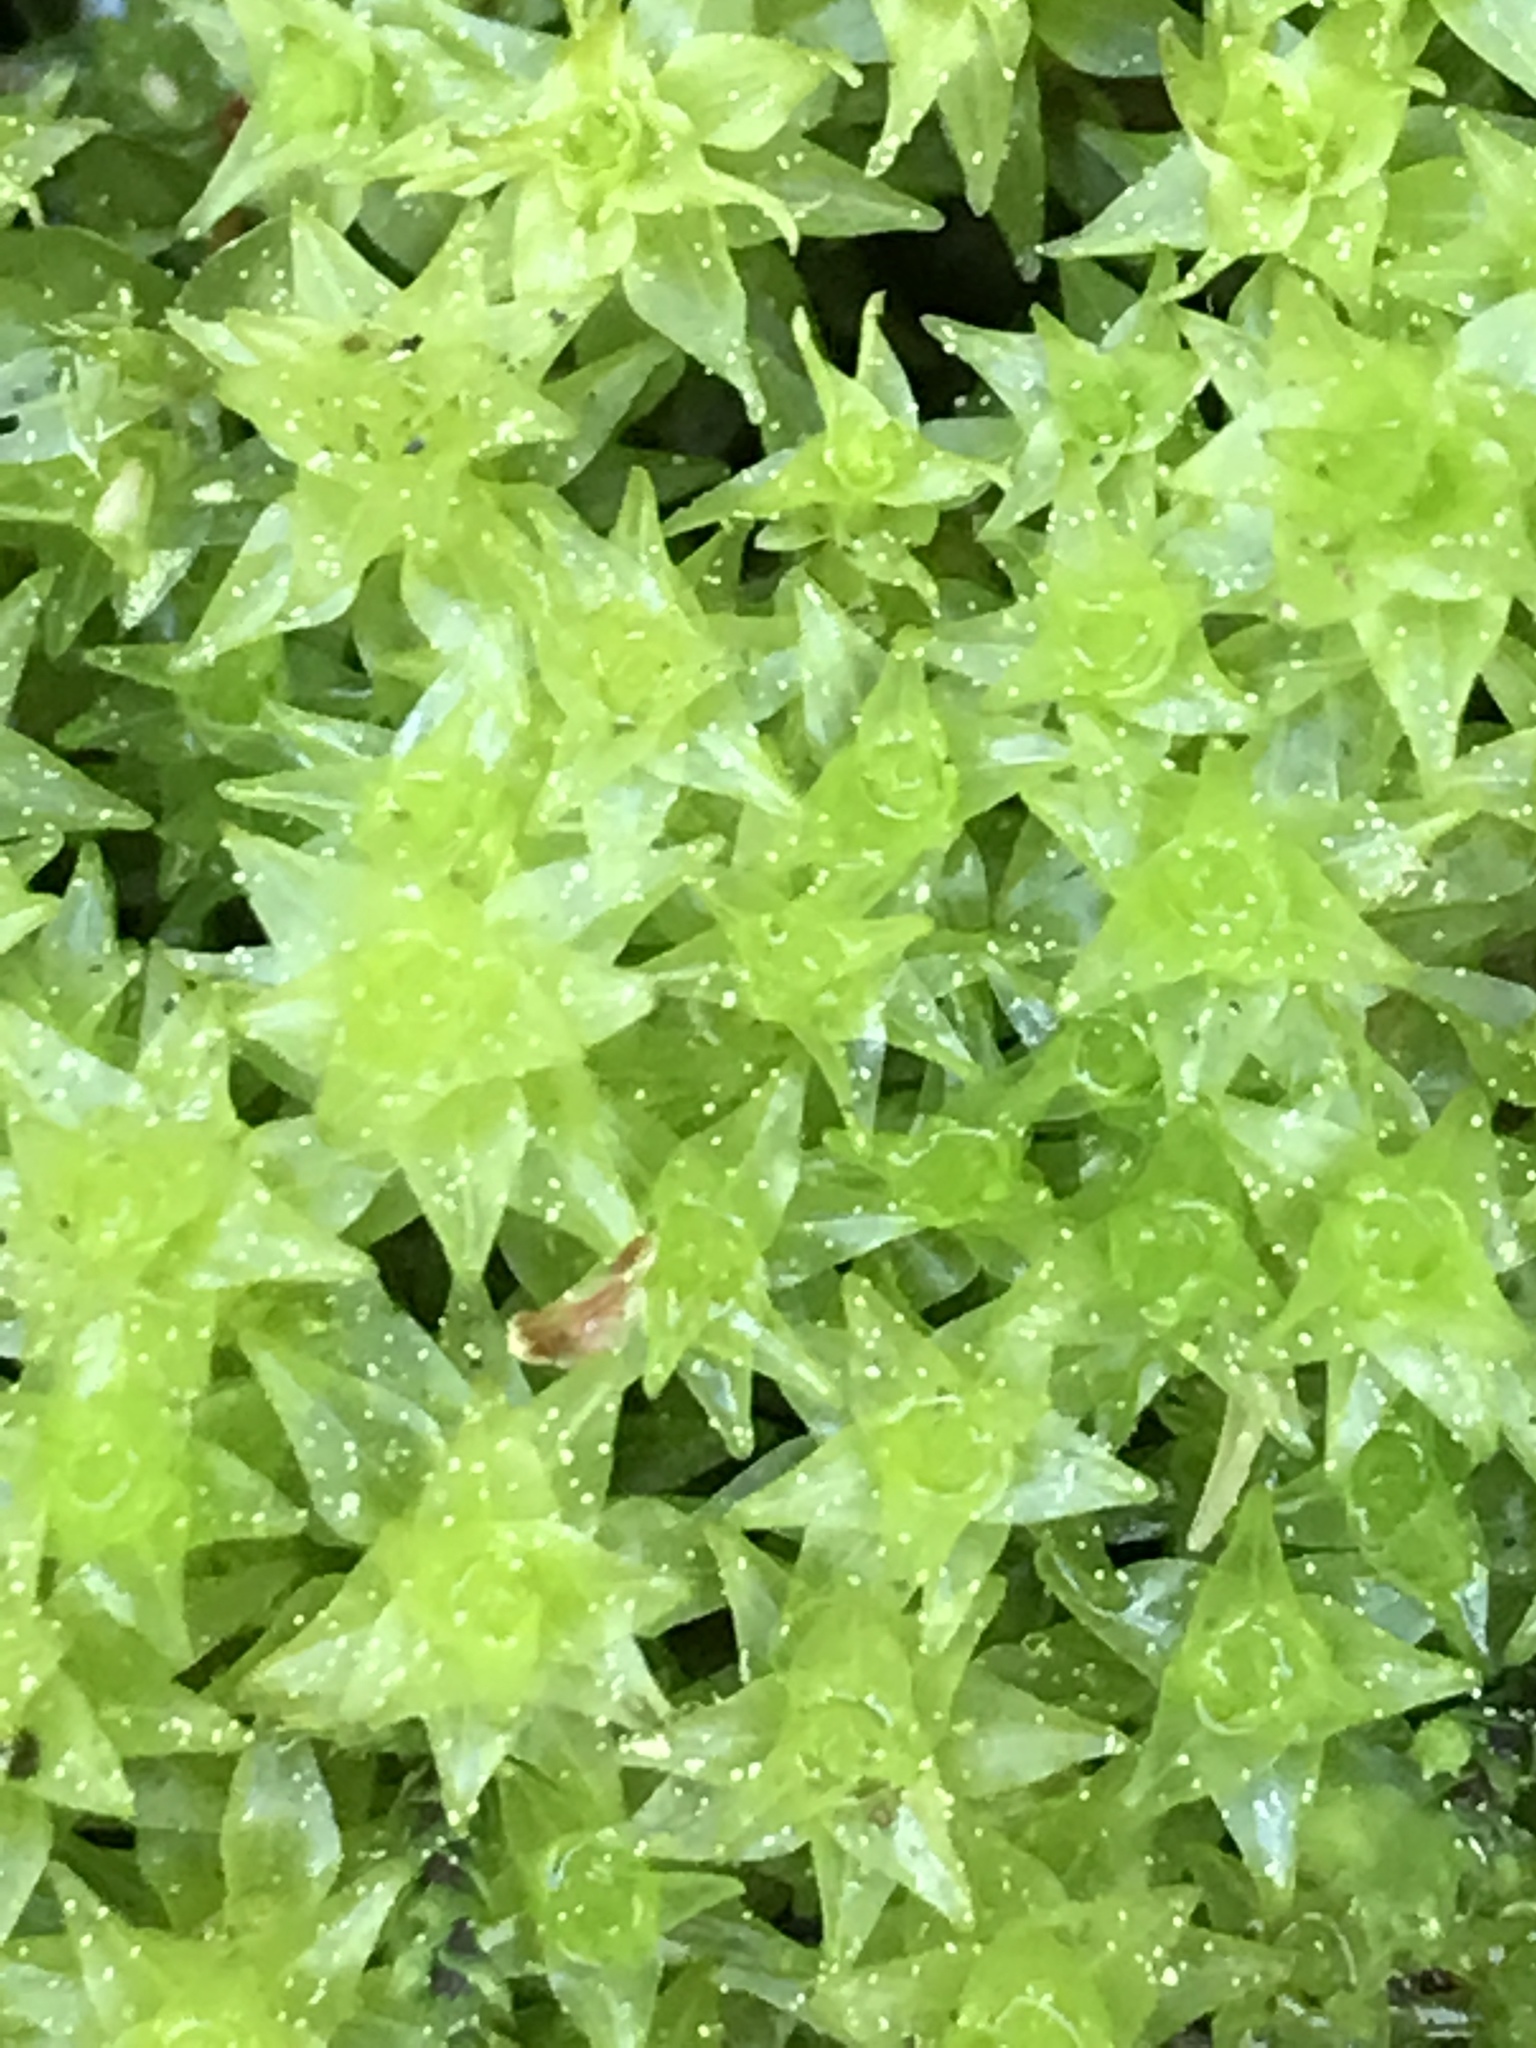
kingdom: Plantae
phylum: Bryophyta
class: Bryopsida
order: Dicranales
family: Aongstroemiaceae
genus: Diobelonella
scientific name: Diobelonella palustris
